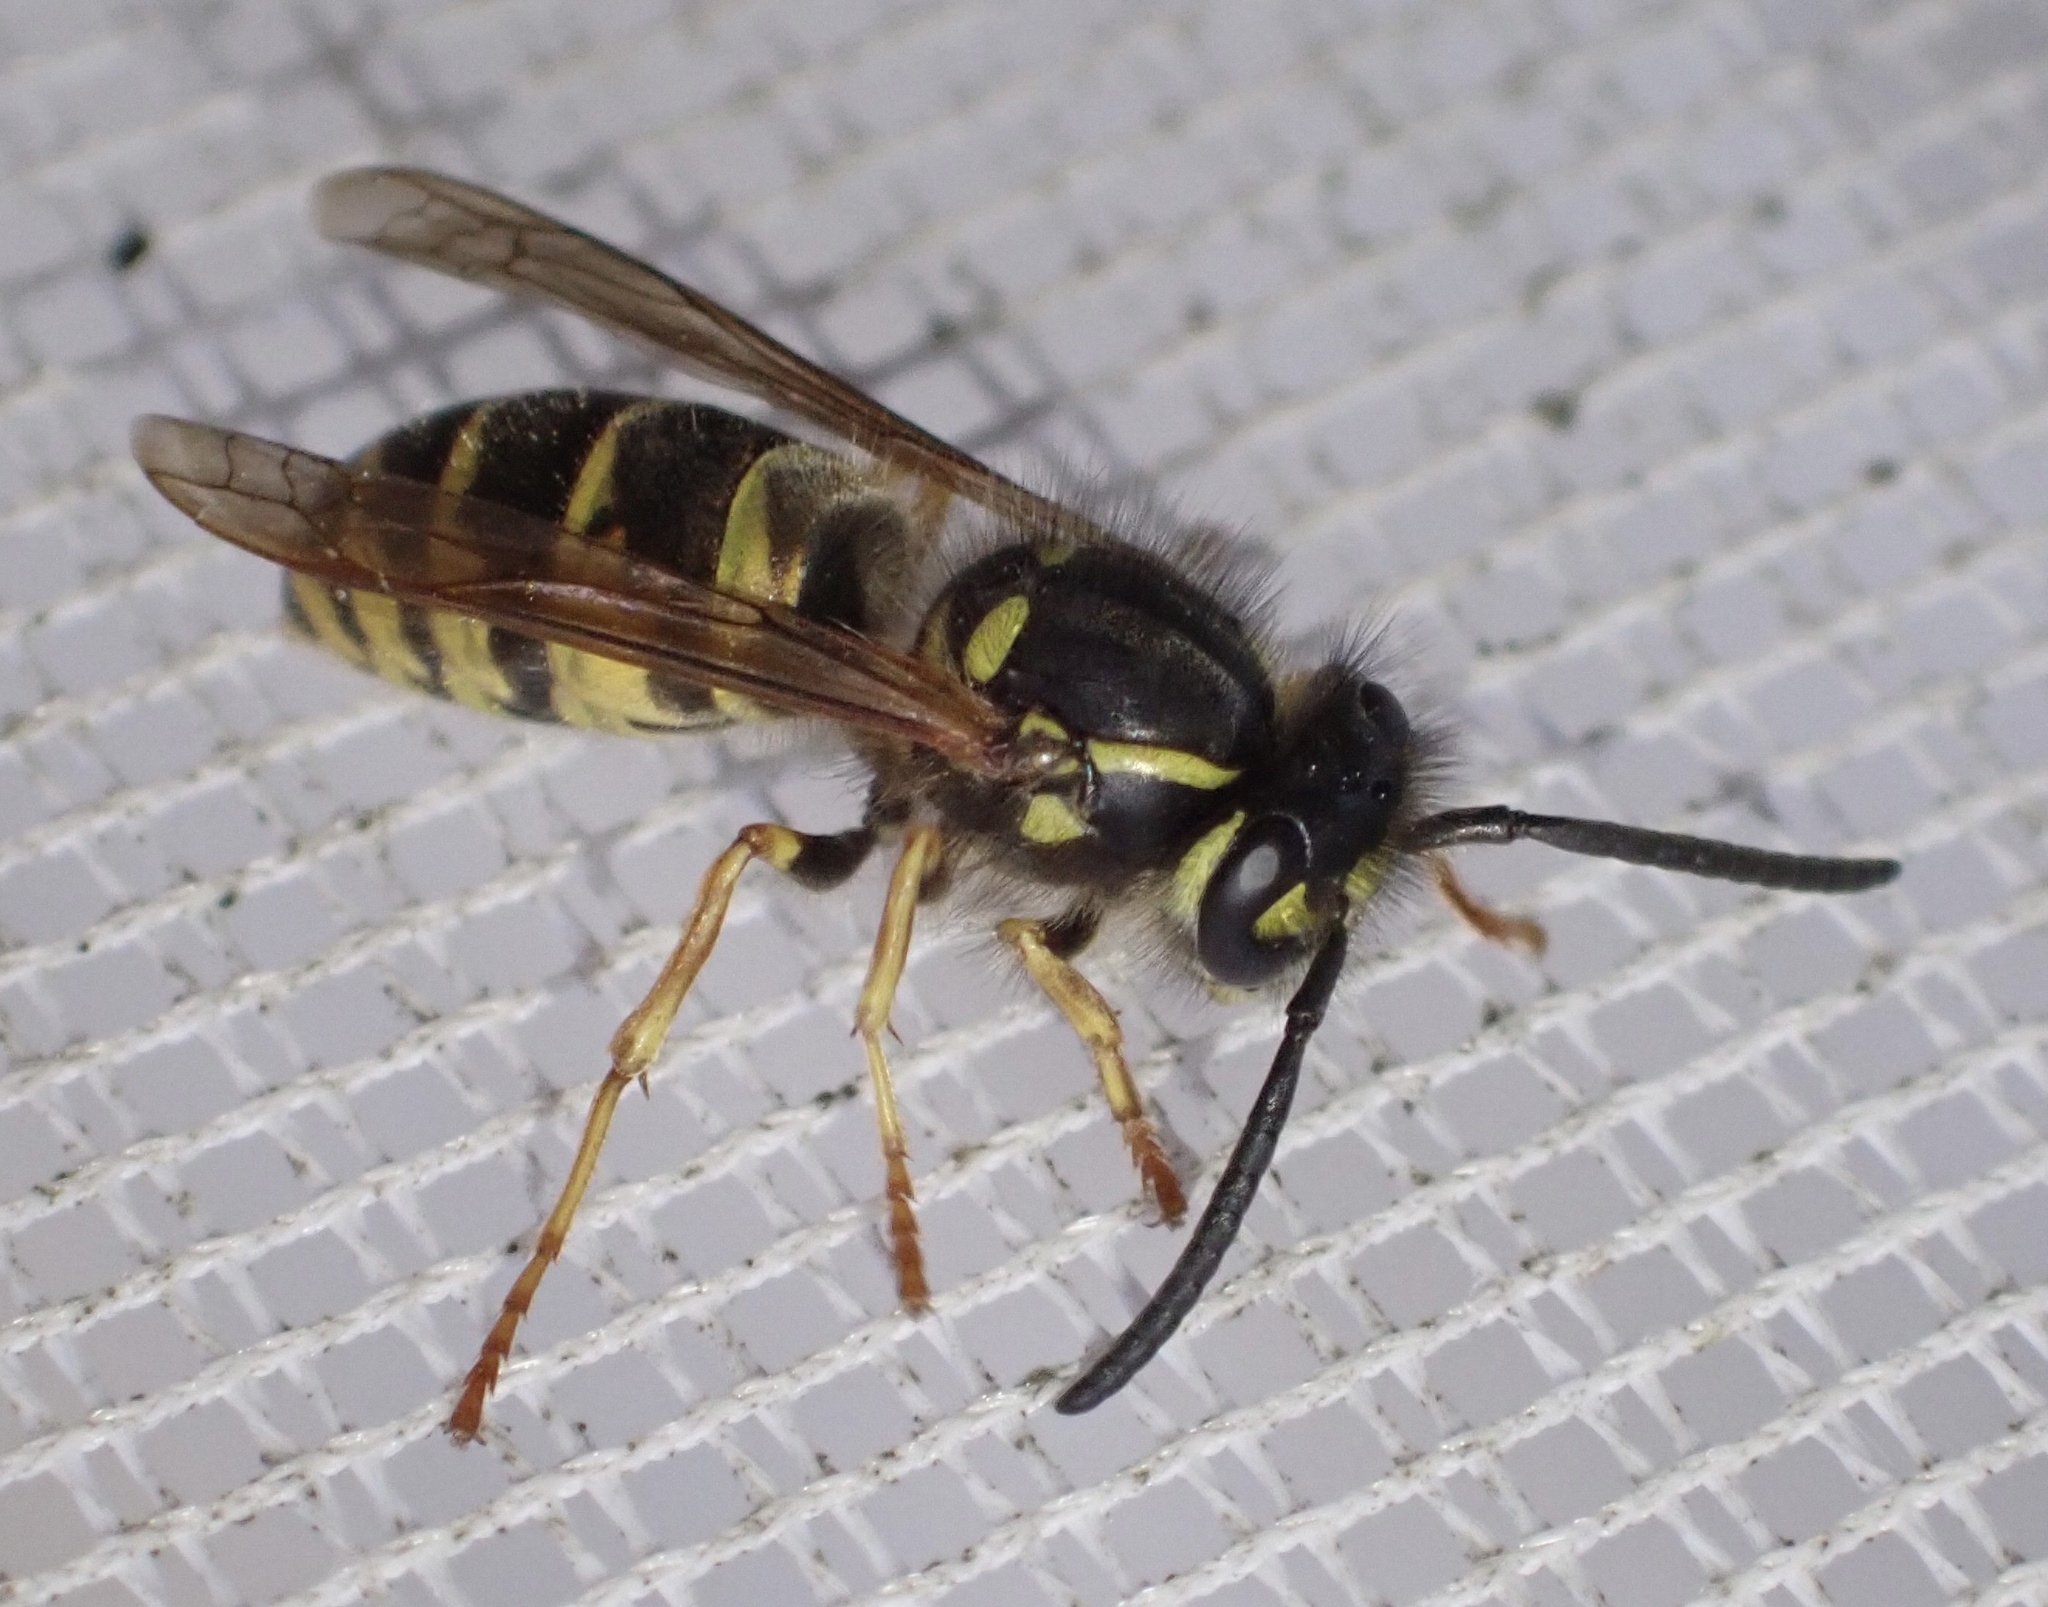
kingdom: Animalia
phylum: Arthropoda
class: Insecta
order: Hymenoptera
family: Vespidae
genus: Vespula
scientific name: Vespula vulgaris
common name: Common wasp
